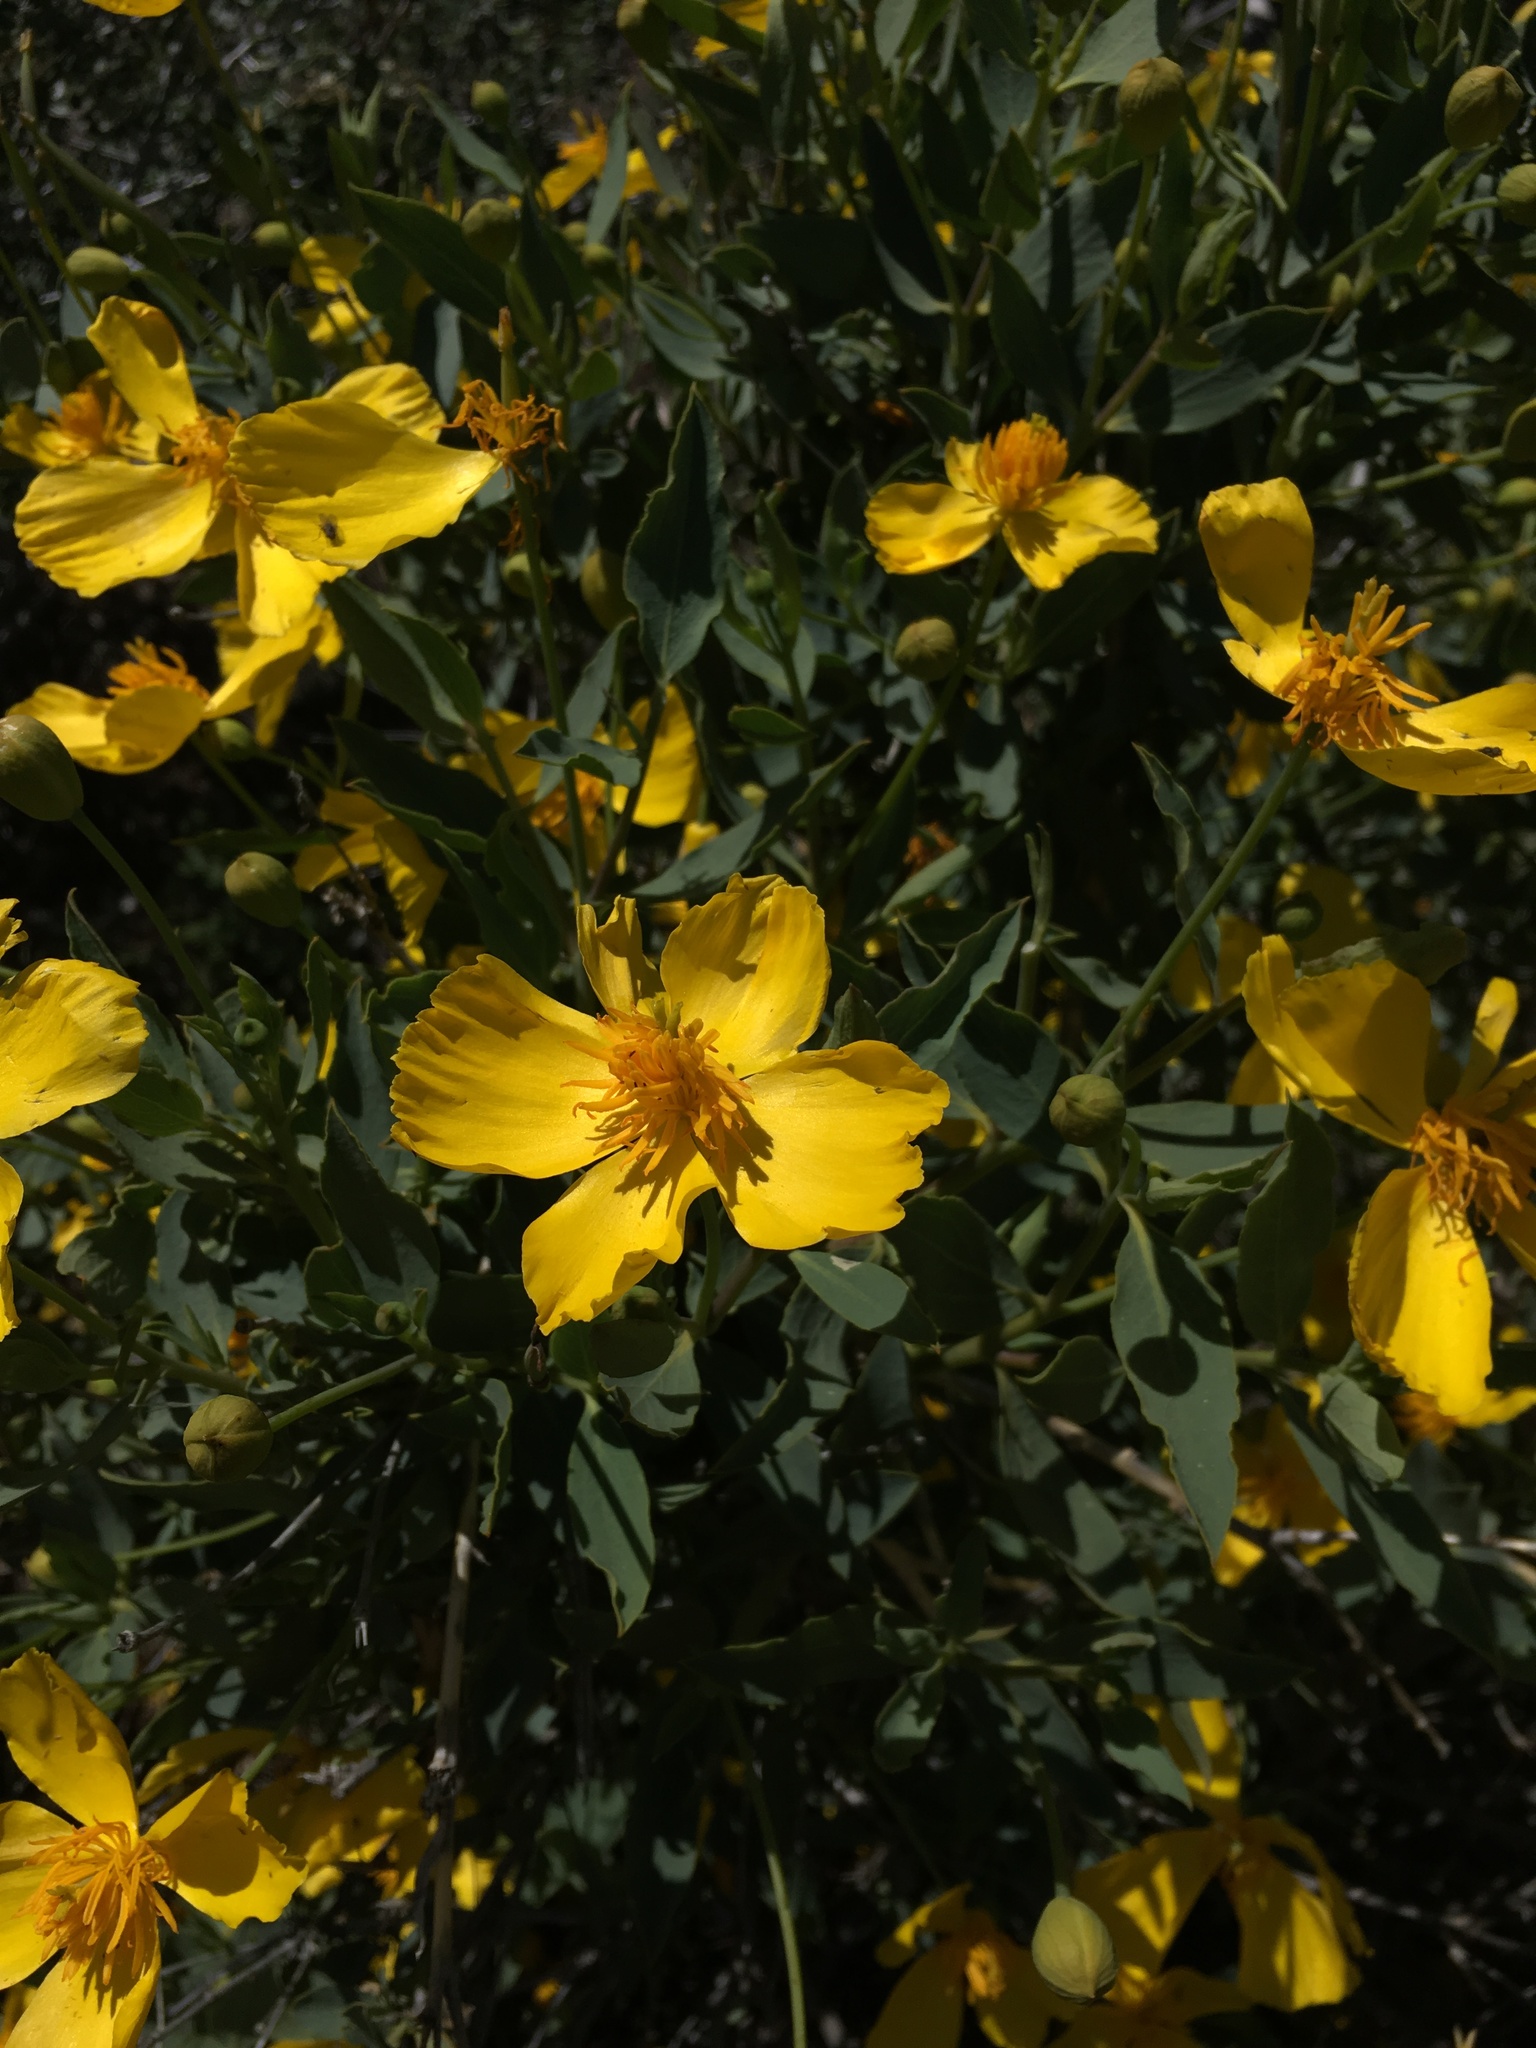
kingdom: Plantae
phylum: Tracheophyta
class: Magnoliopsida
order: Ranunculales
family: Papaveraceae
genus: Dendromecon
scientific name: Dendromecon rigida
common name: Tree poppy
